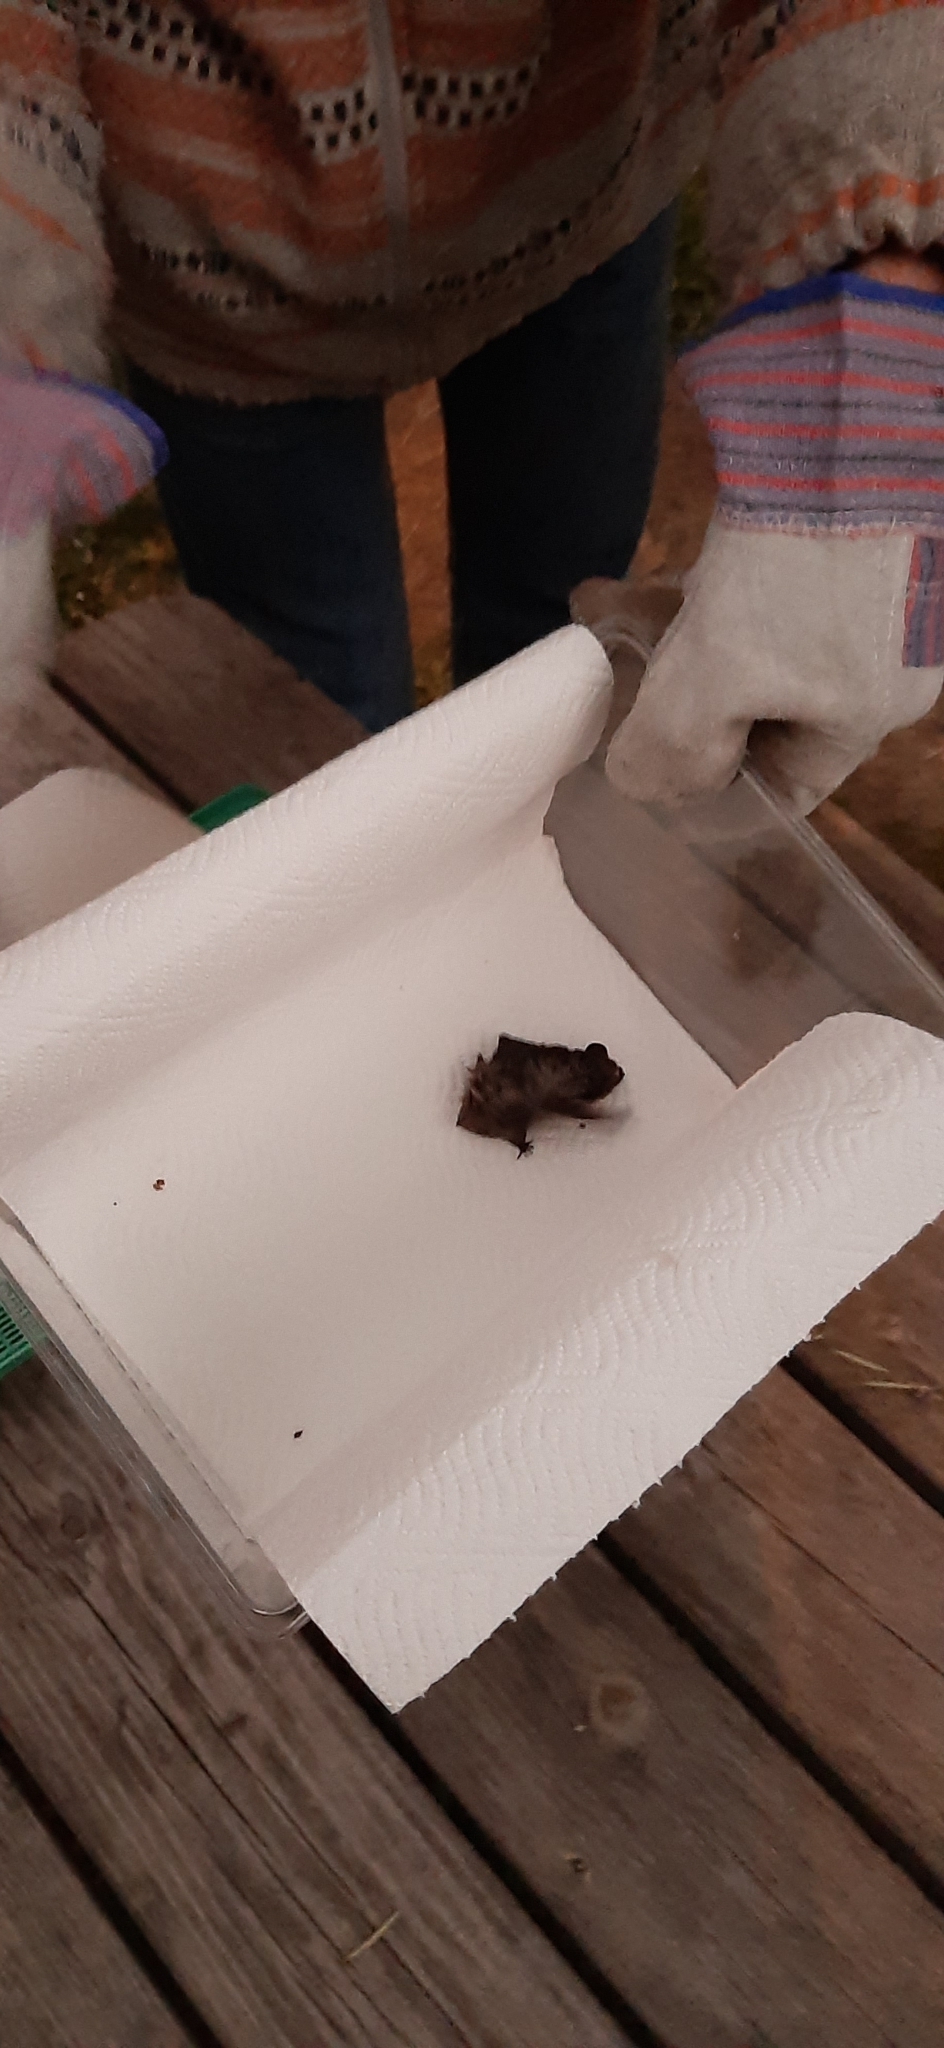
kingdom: Animalia
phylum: Chordata
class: Mammalia
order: Chiroptera
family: Vespertilionidae
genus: Vespertilio
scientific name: Vespertilio murinus
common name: Particolored bat
